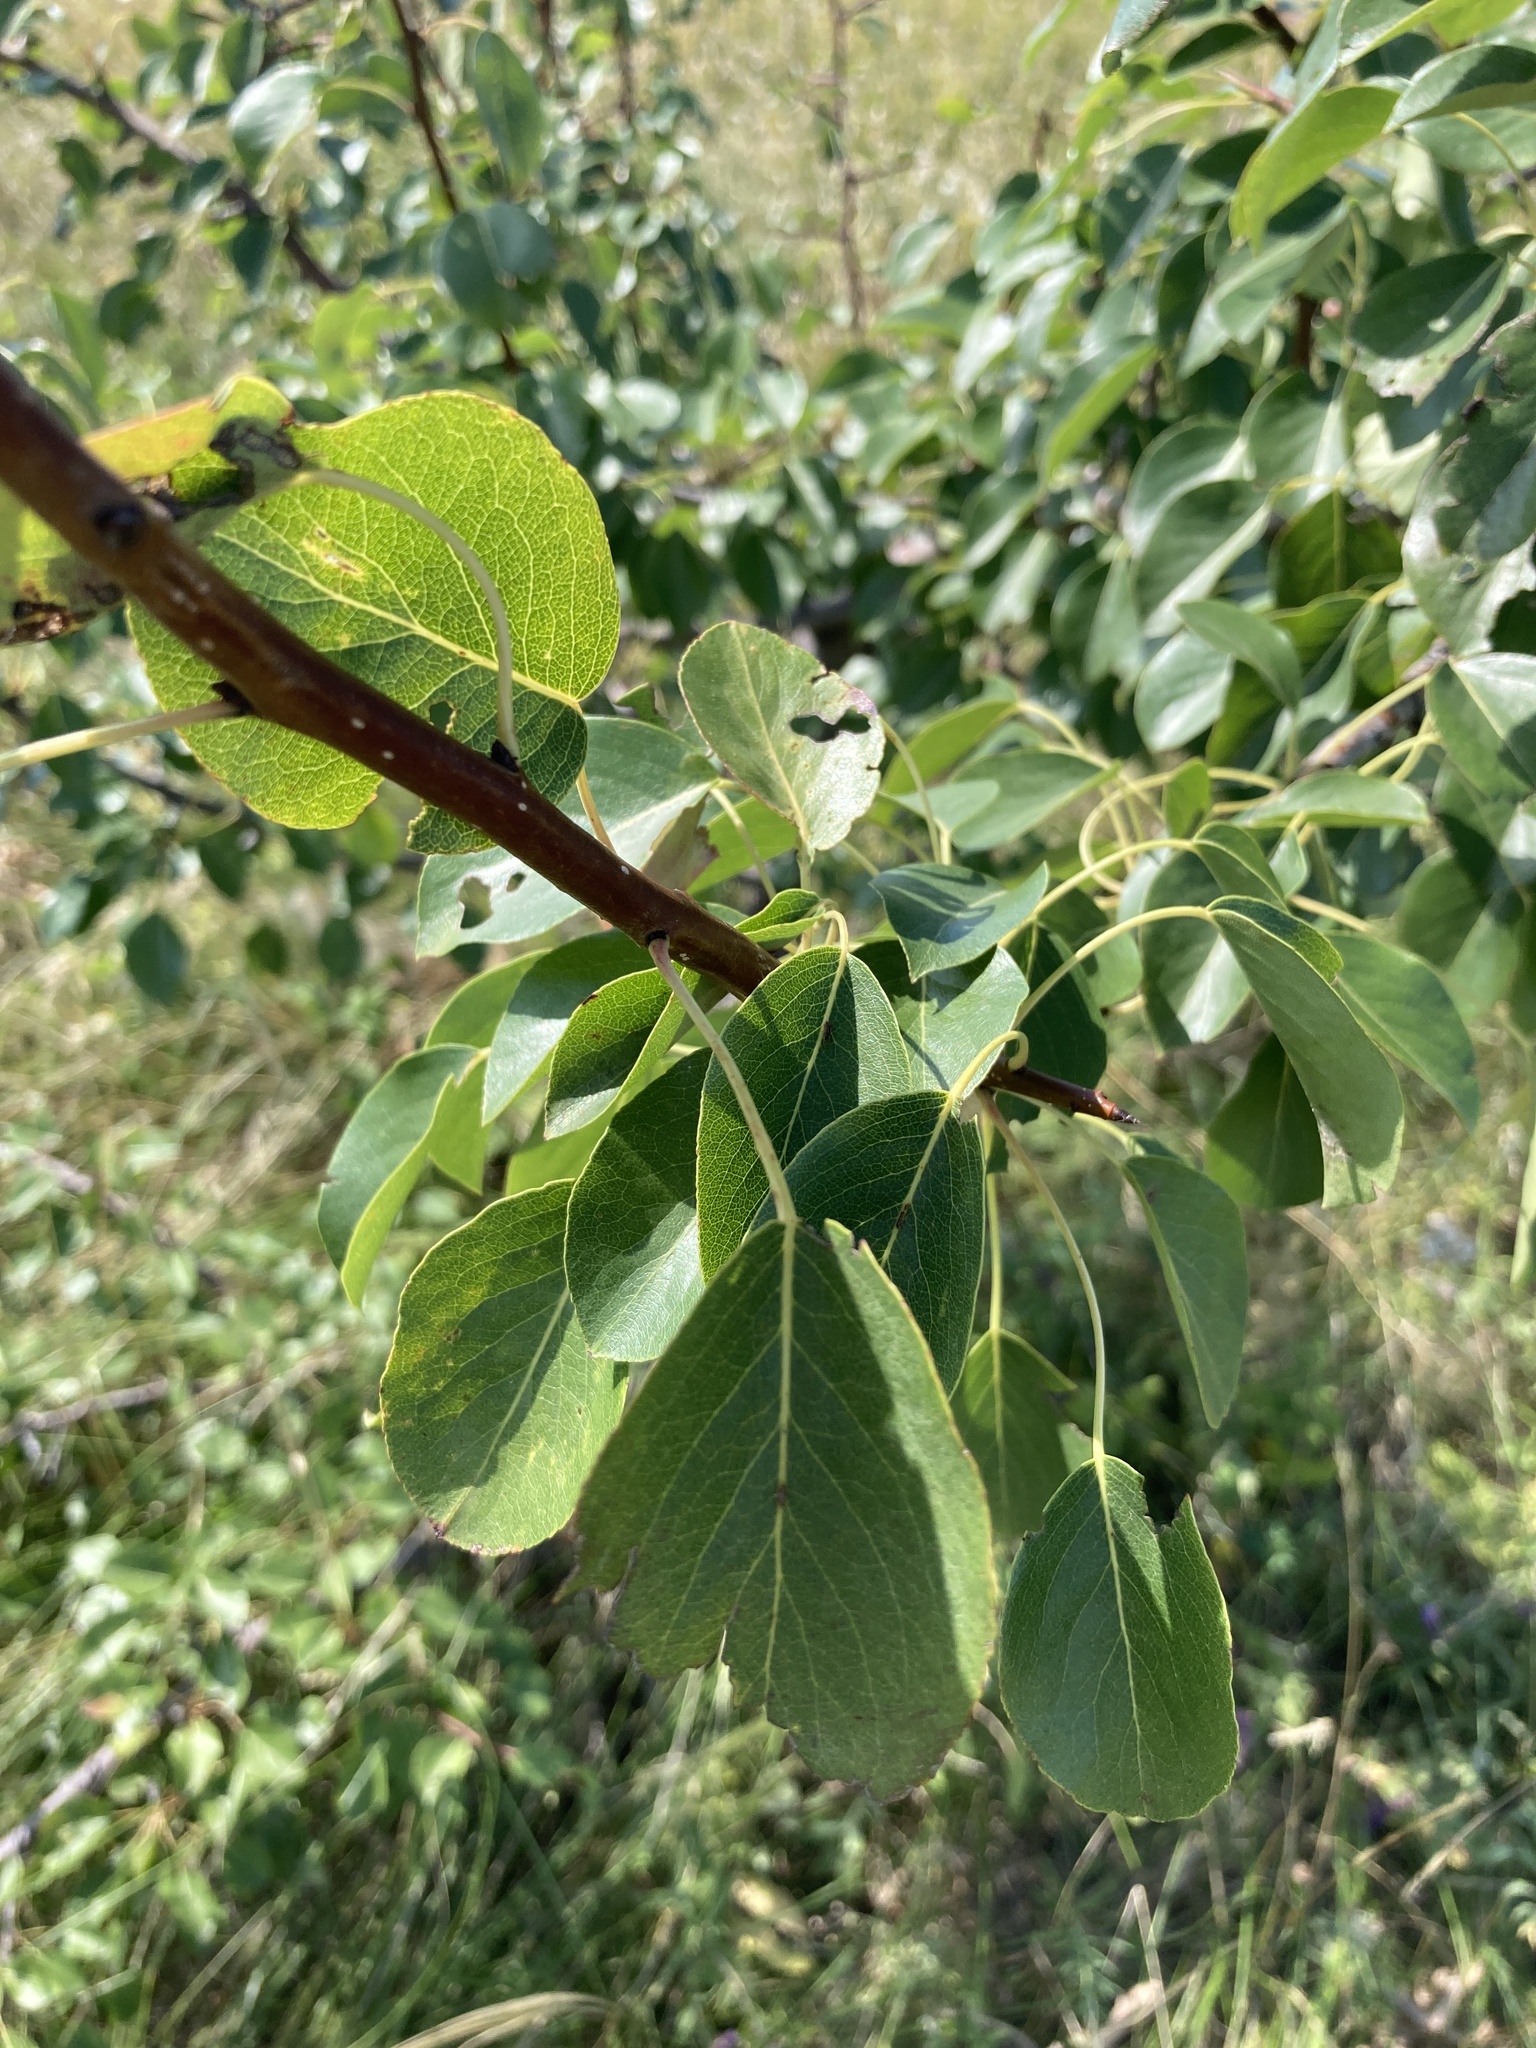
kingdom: Plantae
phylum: Tracheophyta
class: Magnoliopsida
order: Rosales
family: Rosaceae
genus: Pyrus
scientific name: Pyrus communis
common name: Pear
